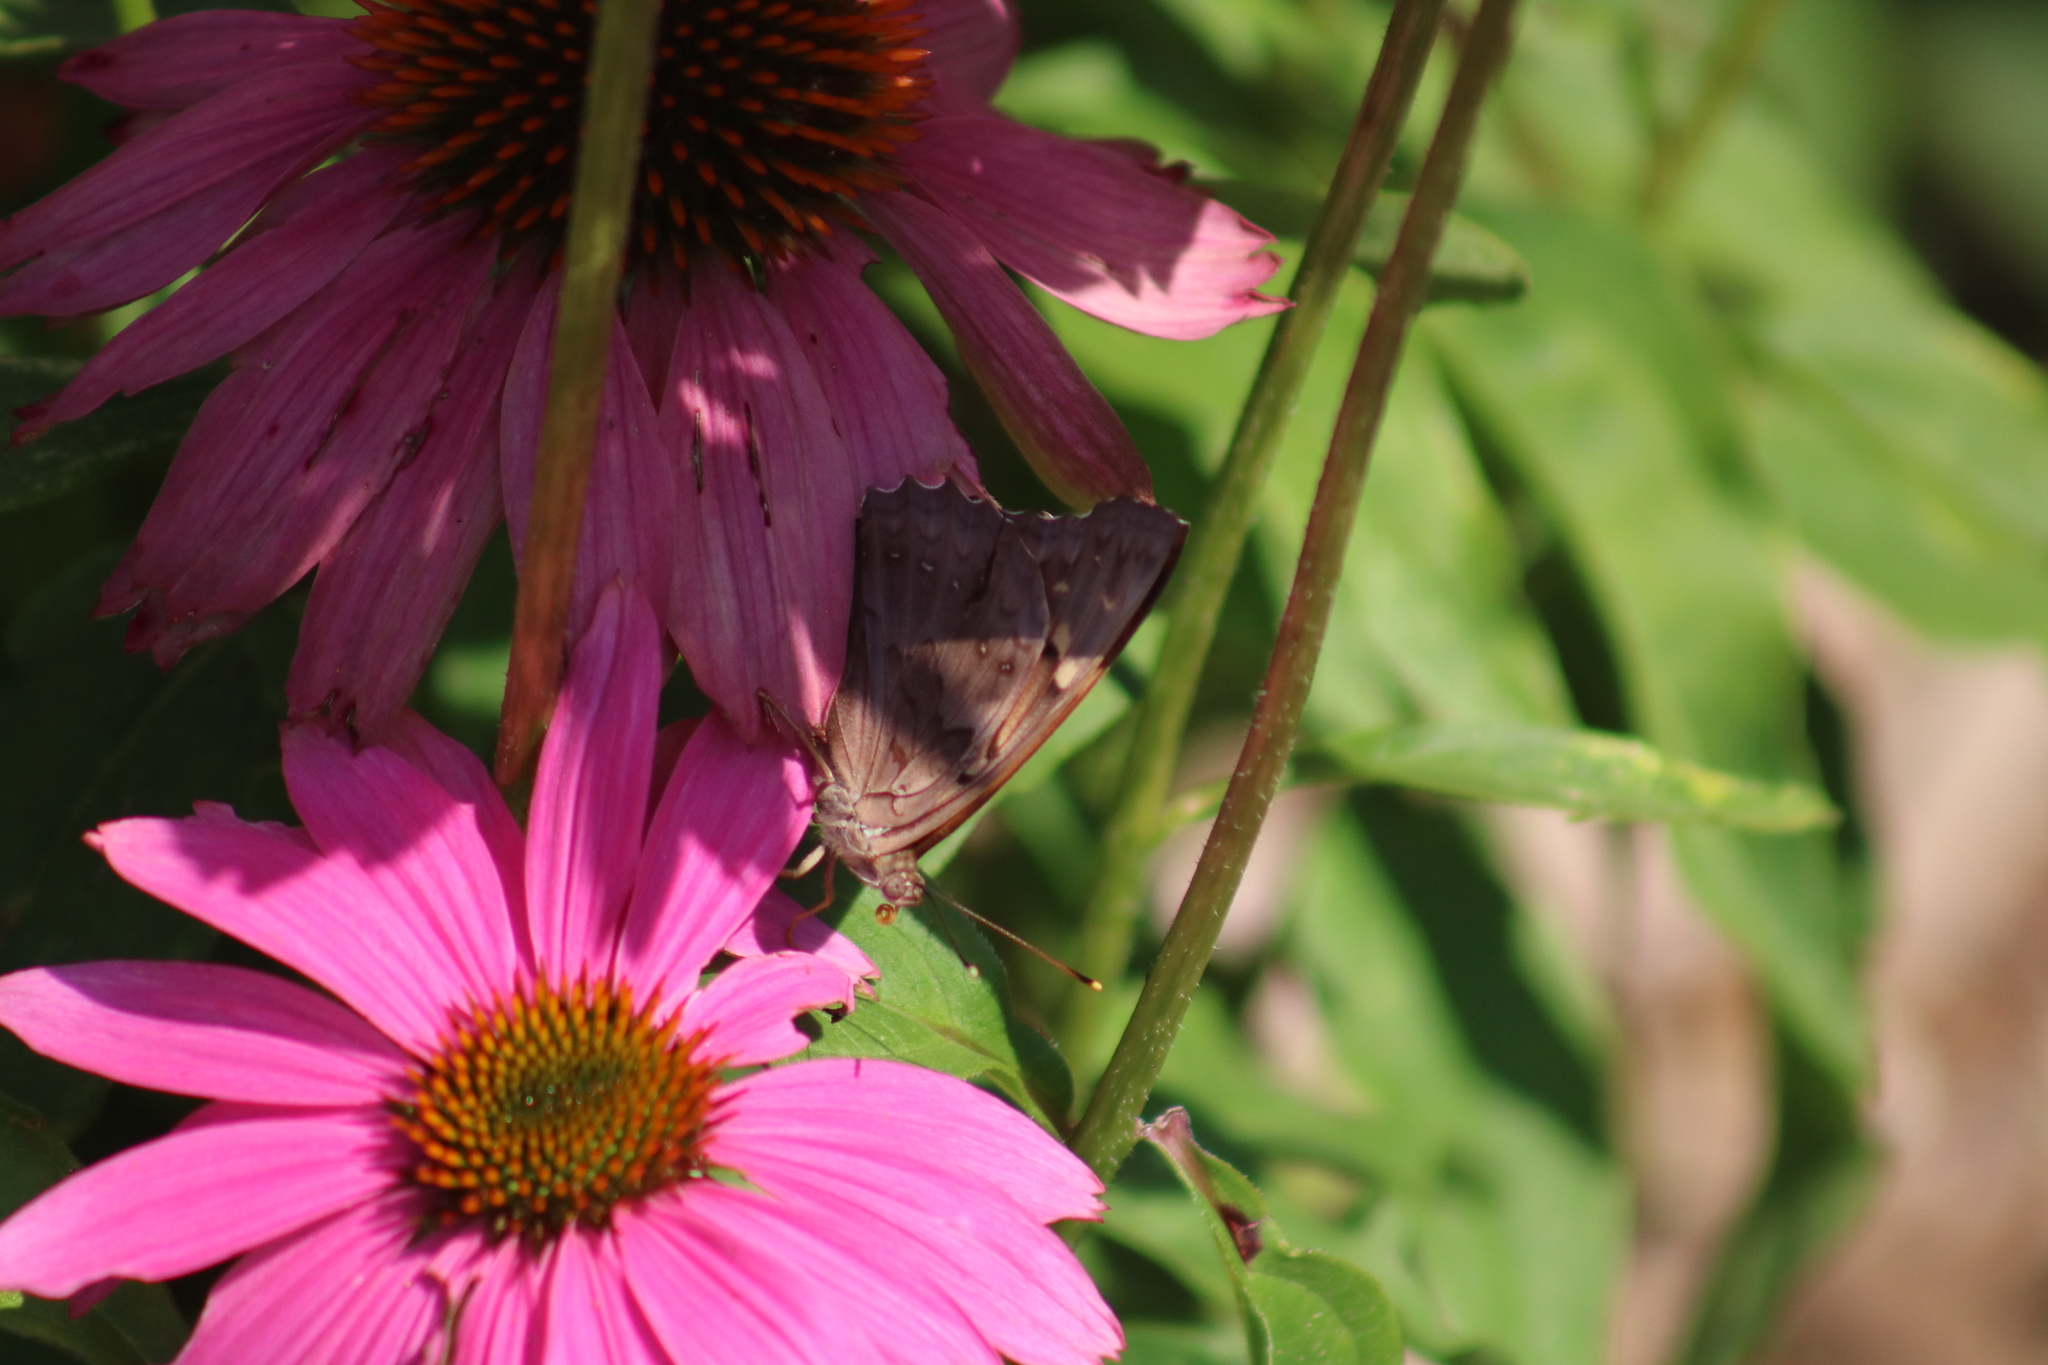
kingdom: Animalia
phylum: Arthropoda
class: Insecta
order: Lepidoptera
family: Nymphalidae
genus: Asterocampa
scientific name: Asterocampa clyton
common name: Tawny emperor
